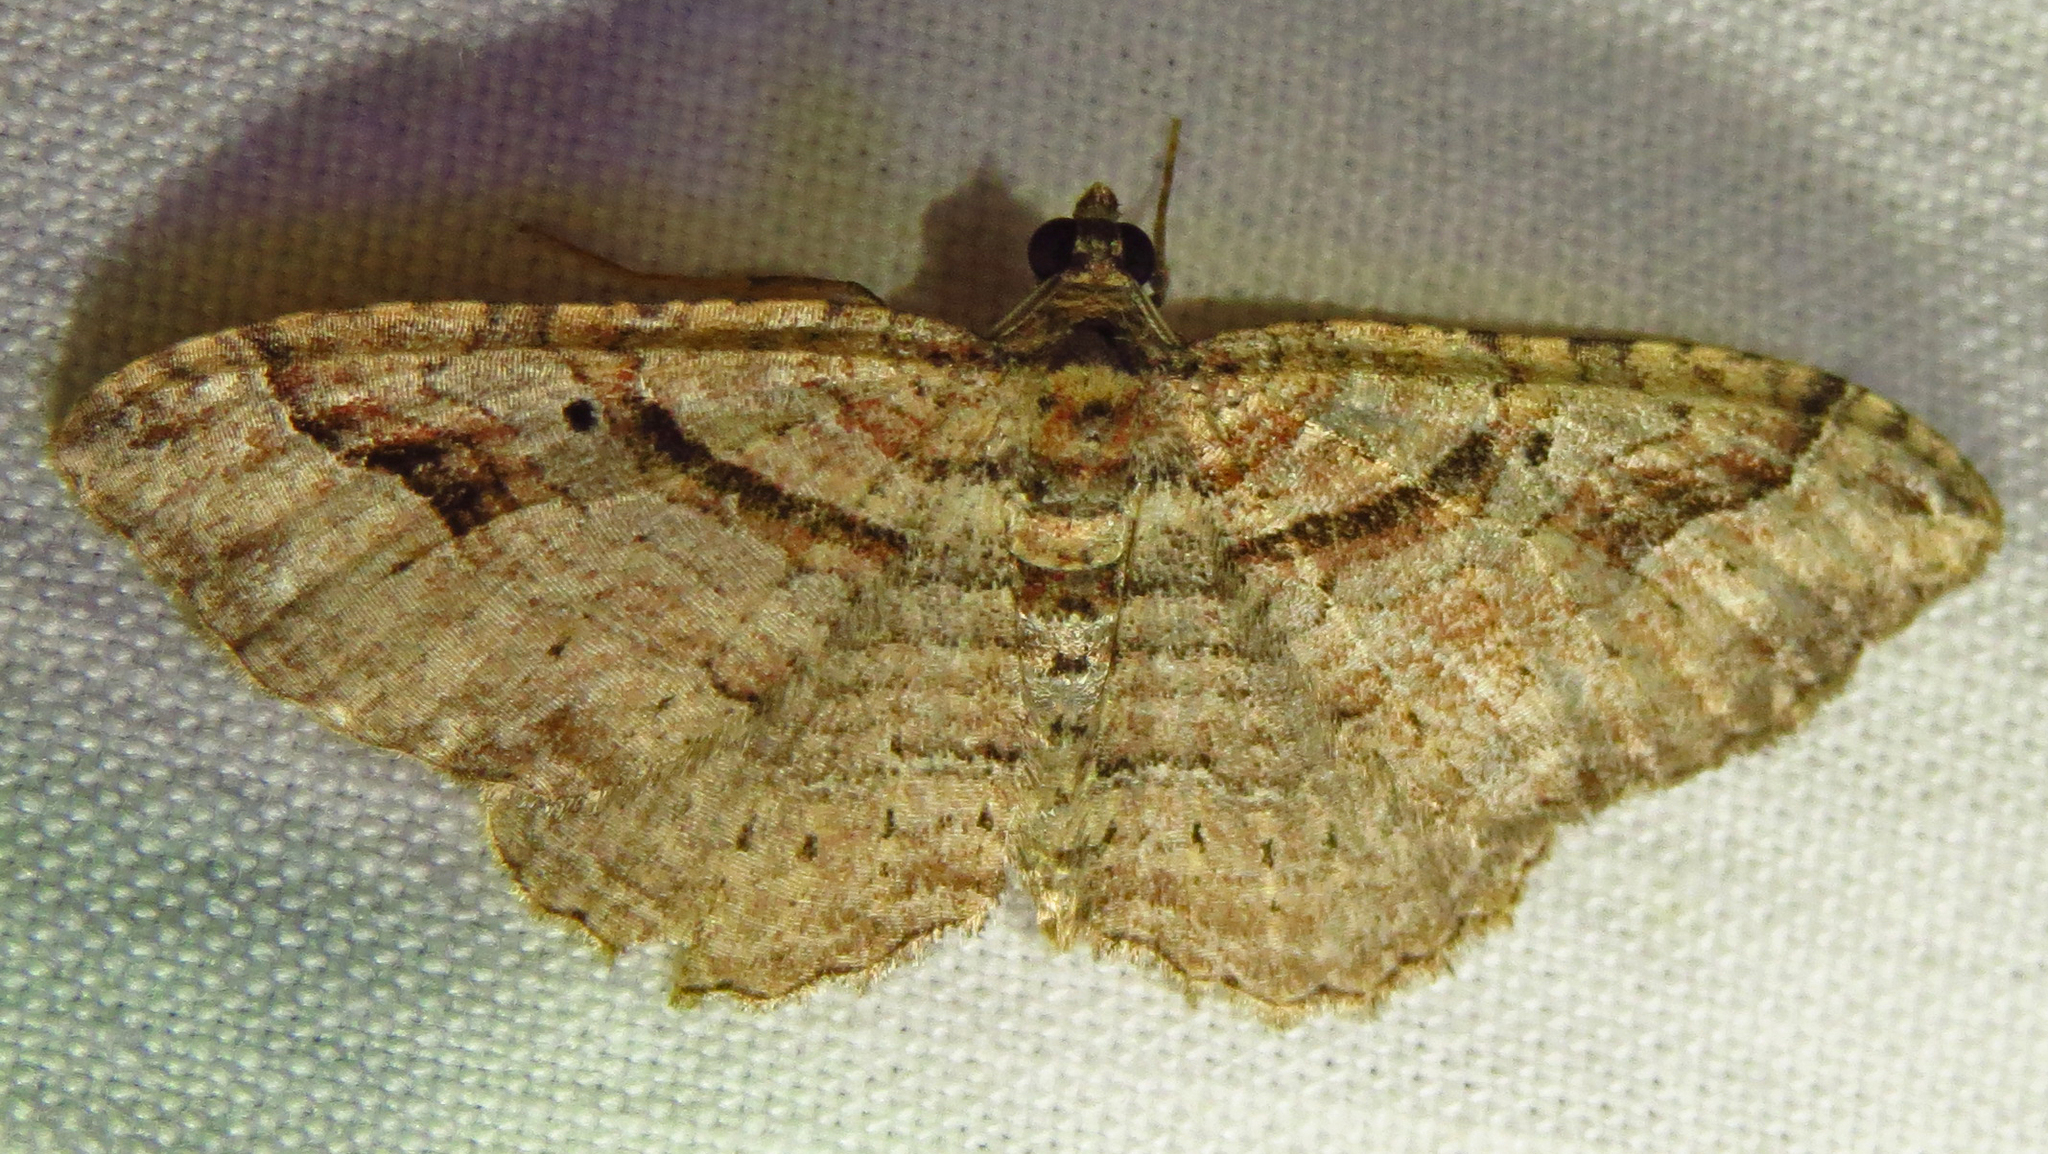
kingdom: Animalia
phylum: Arthropoda
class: Insecta
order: Lepidoptera
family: Geometridae
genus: Costaconvexa
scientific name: Costaconvexa centrostrigaria
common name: Bent-line carpet
